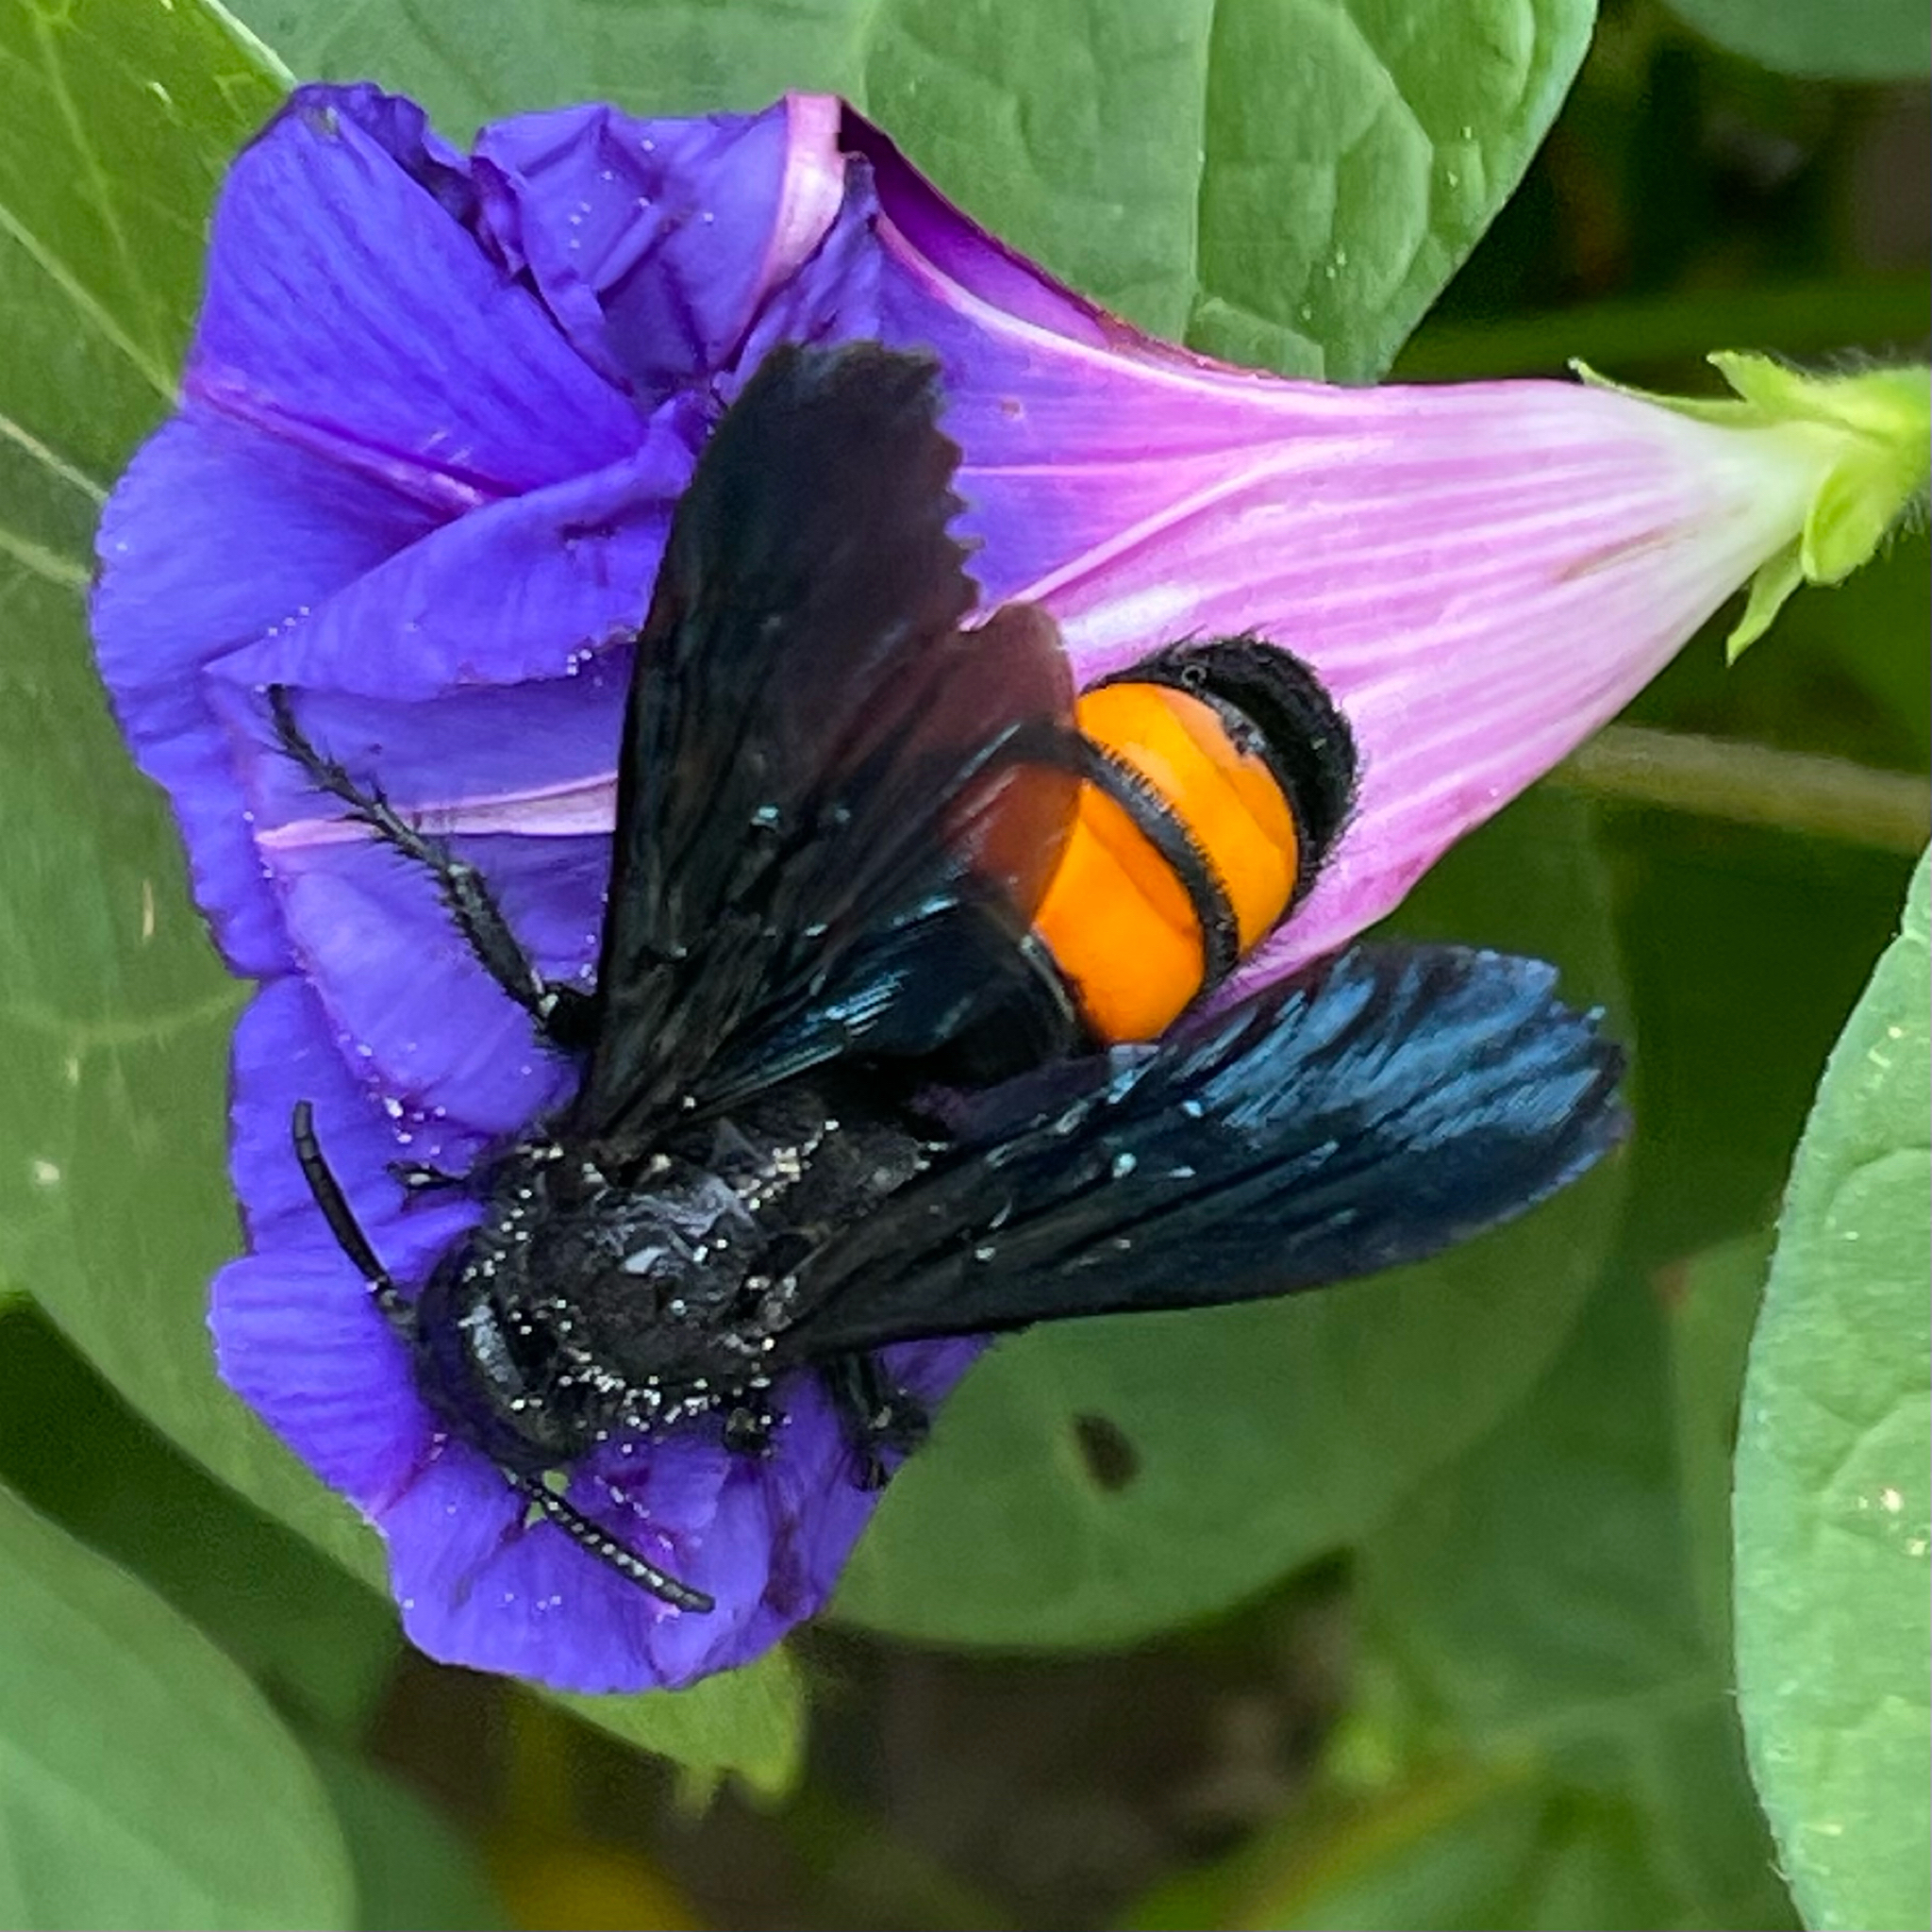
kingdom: Animalia
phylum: Arthropoda
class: Insecta
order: Hymenoptera
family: Scoliidae
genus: Pygodasis
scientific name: Pygodasis ephippium
